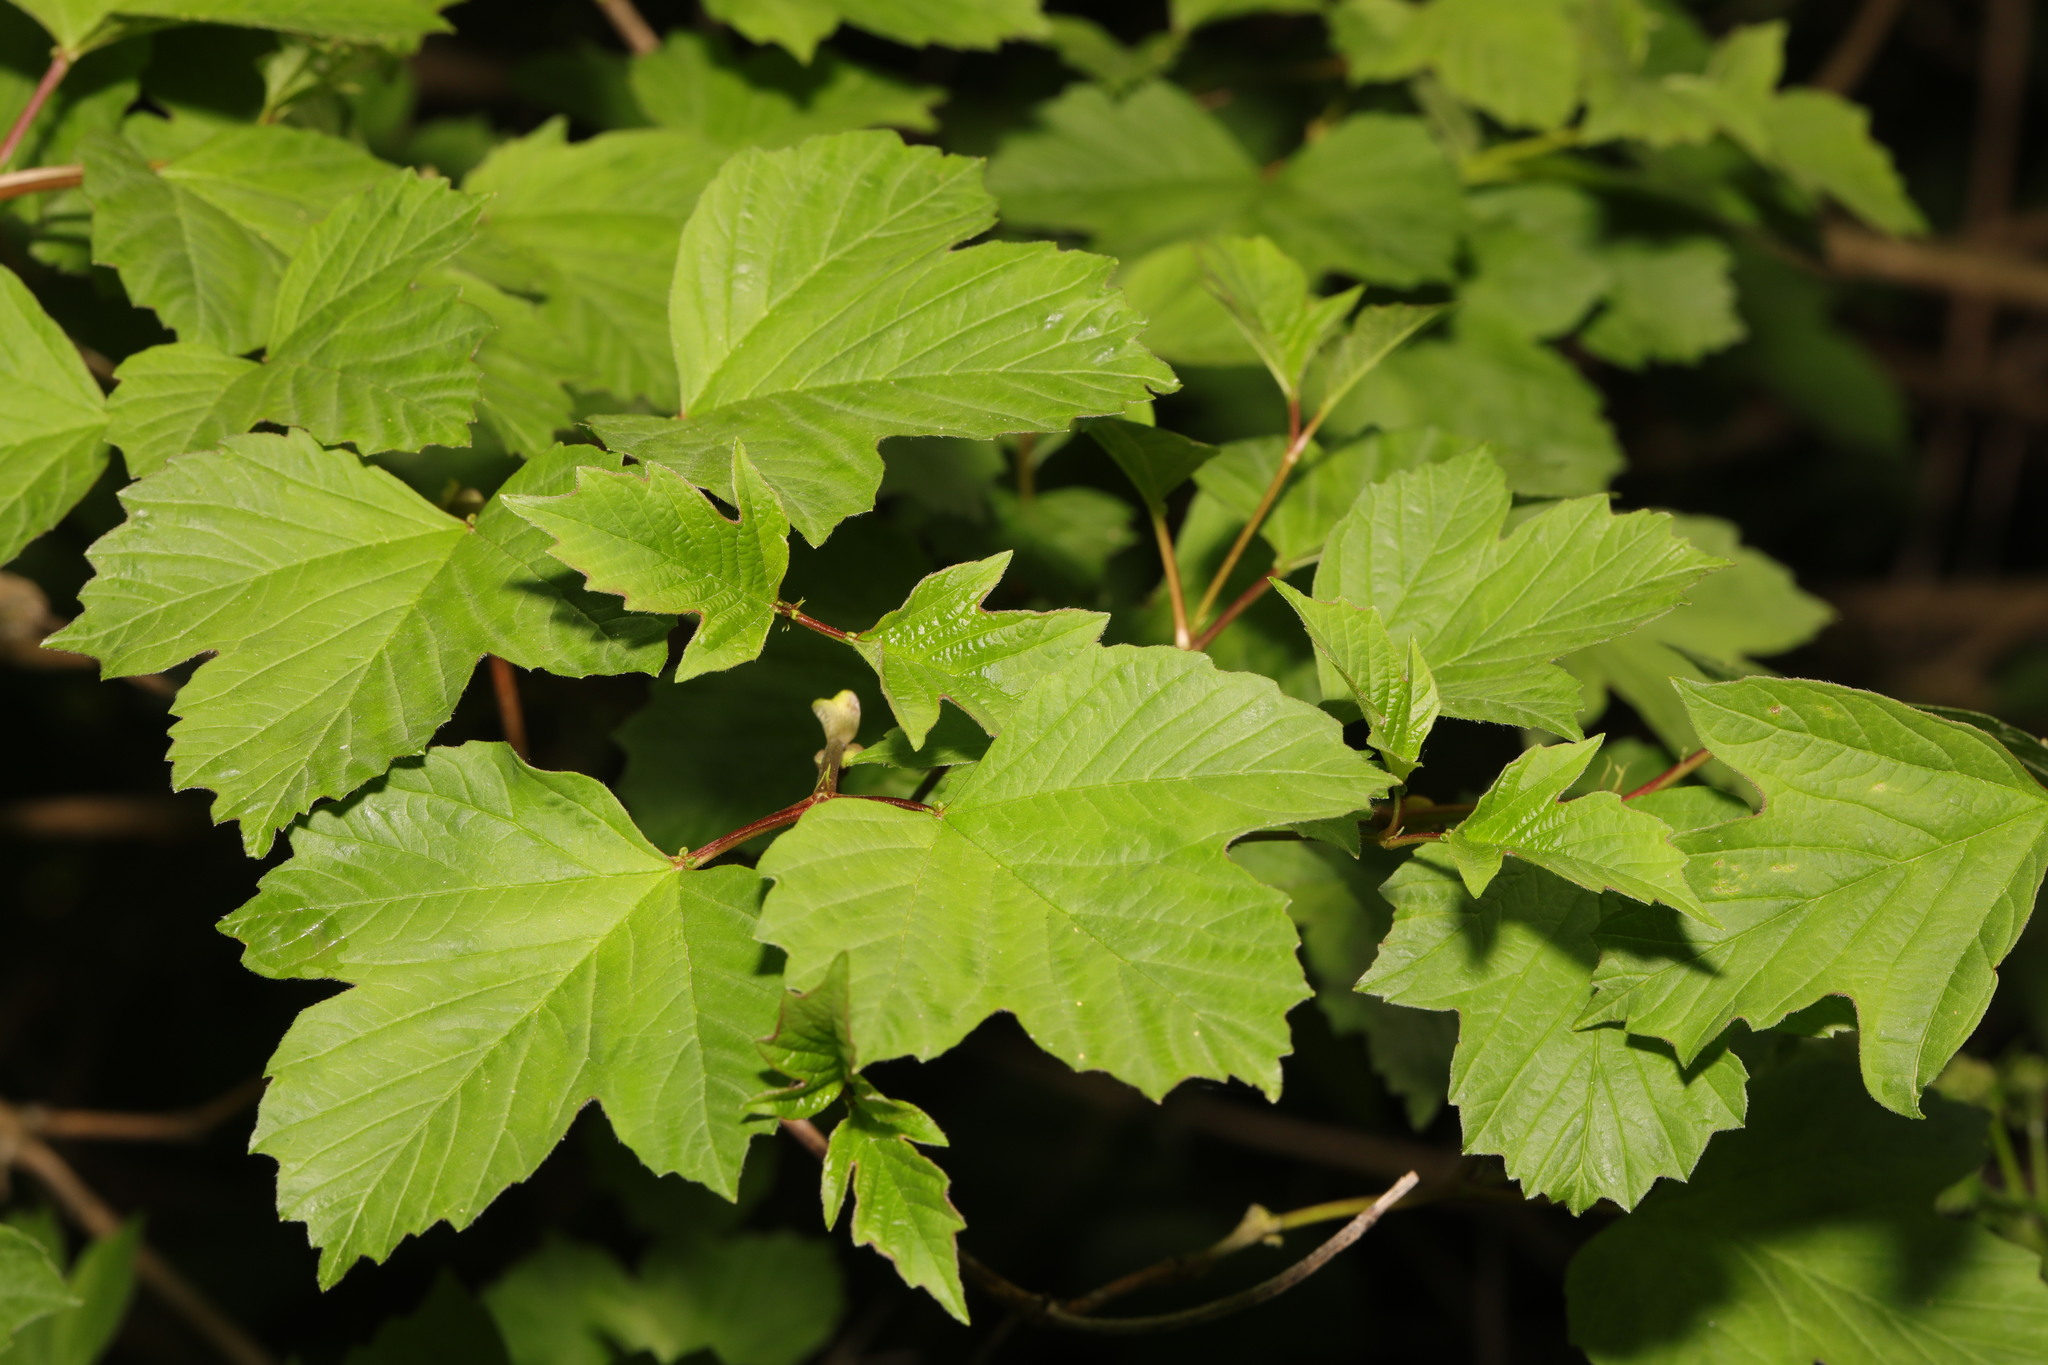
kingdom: Plantae
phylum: Tracheophyta
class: Magnoliopsida
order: Dipsacales
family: Viburnaceae
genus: Viburnum
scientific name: Viburnum opulus
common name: Guelder-rose
